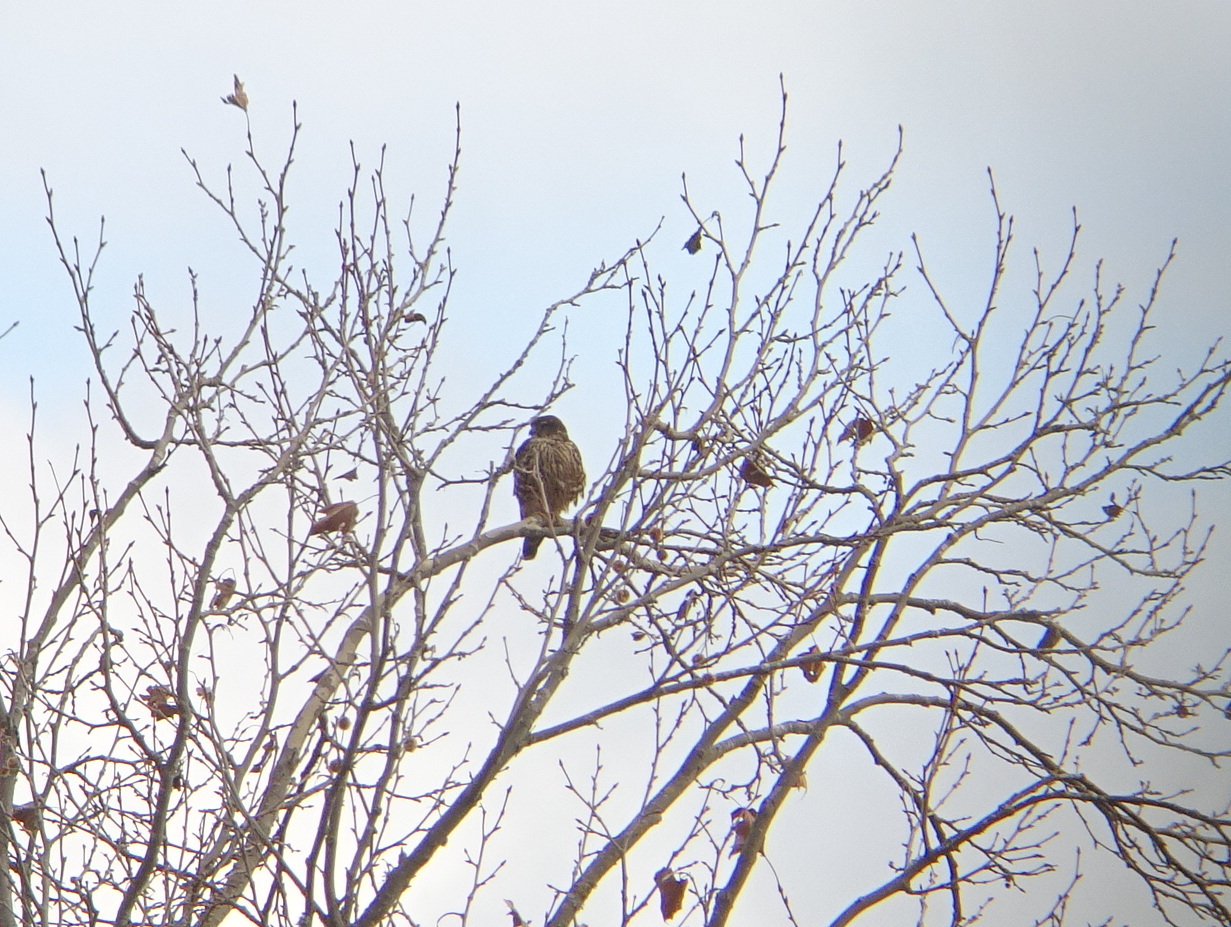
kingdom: Animalia
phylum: Chordata
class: Aves
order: Falconiformes
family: Falconidae
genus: Falco
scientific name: Falco columbarius
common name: Merlin
